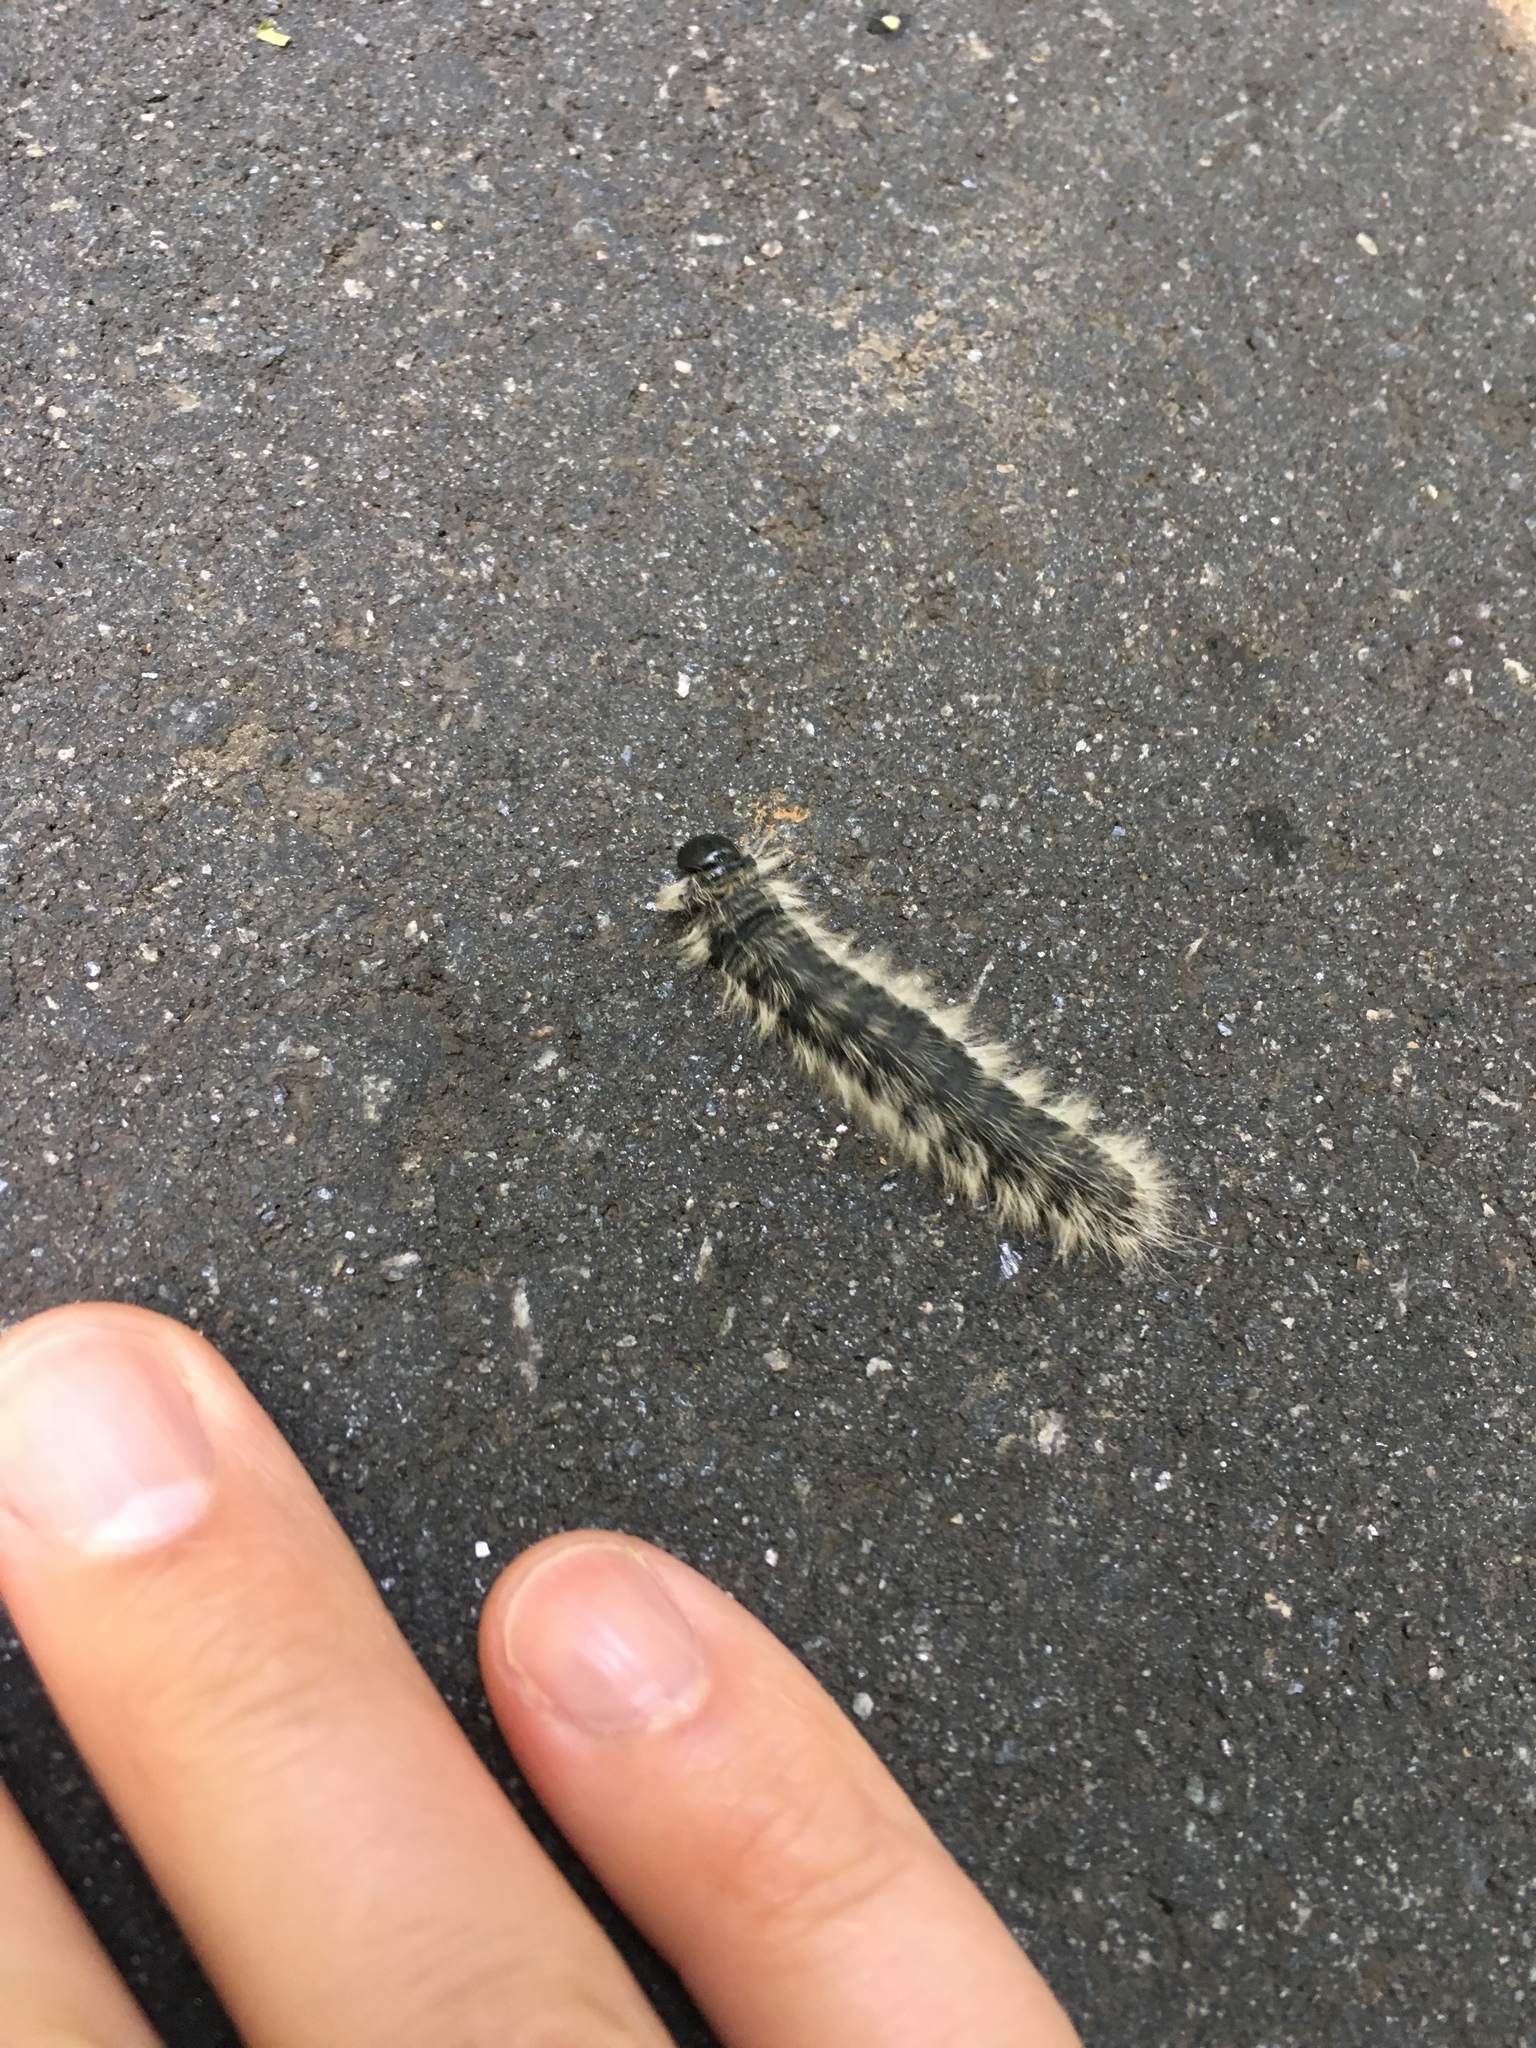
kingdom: Animalia
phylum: Arthropoda
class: Insecta
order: Lepidoptera
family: Notodontidae
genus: Datana
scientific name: Datana integerrima
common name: Walnut caterpillar
